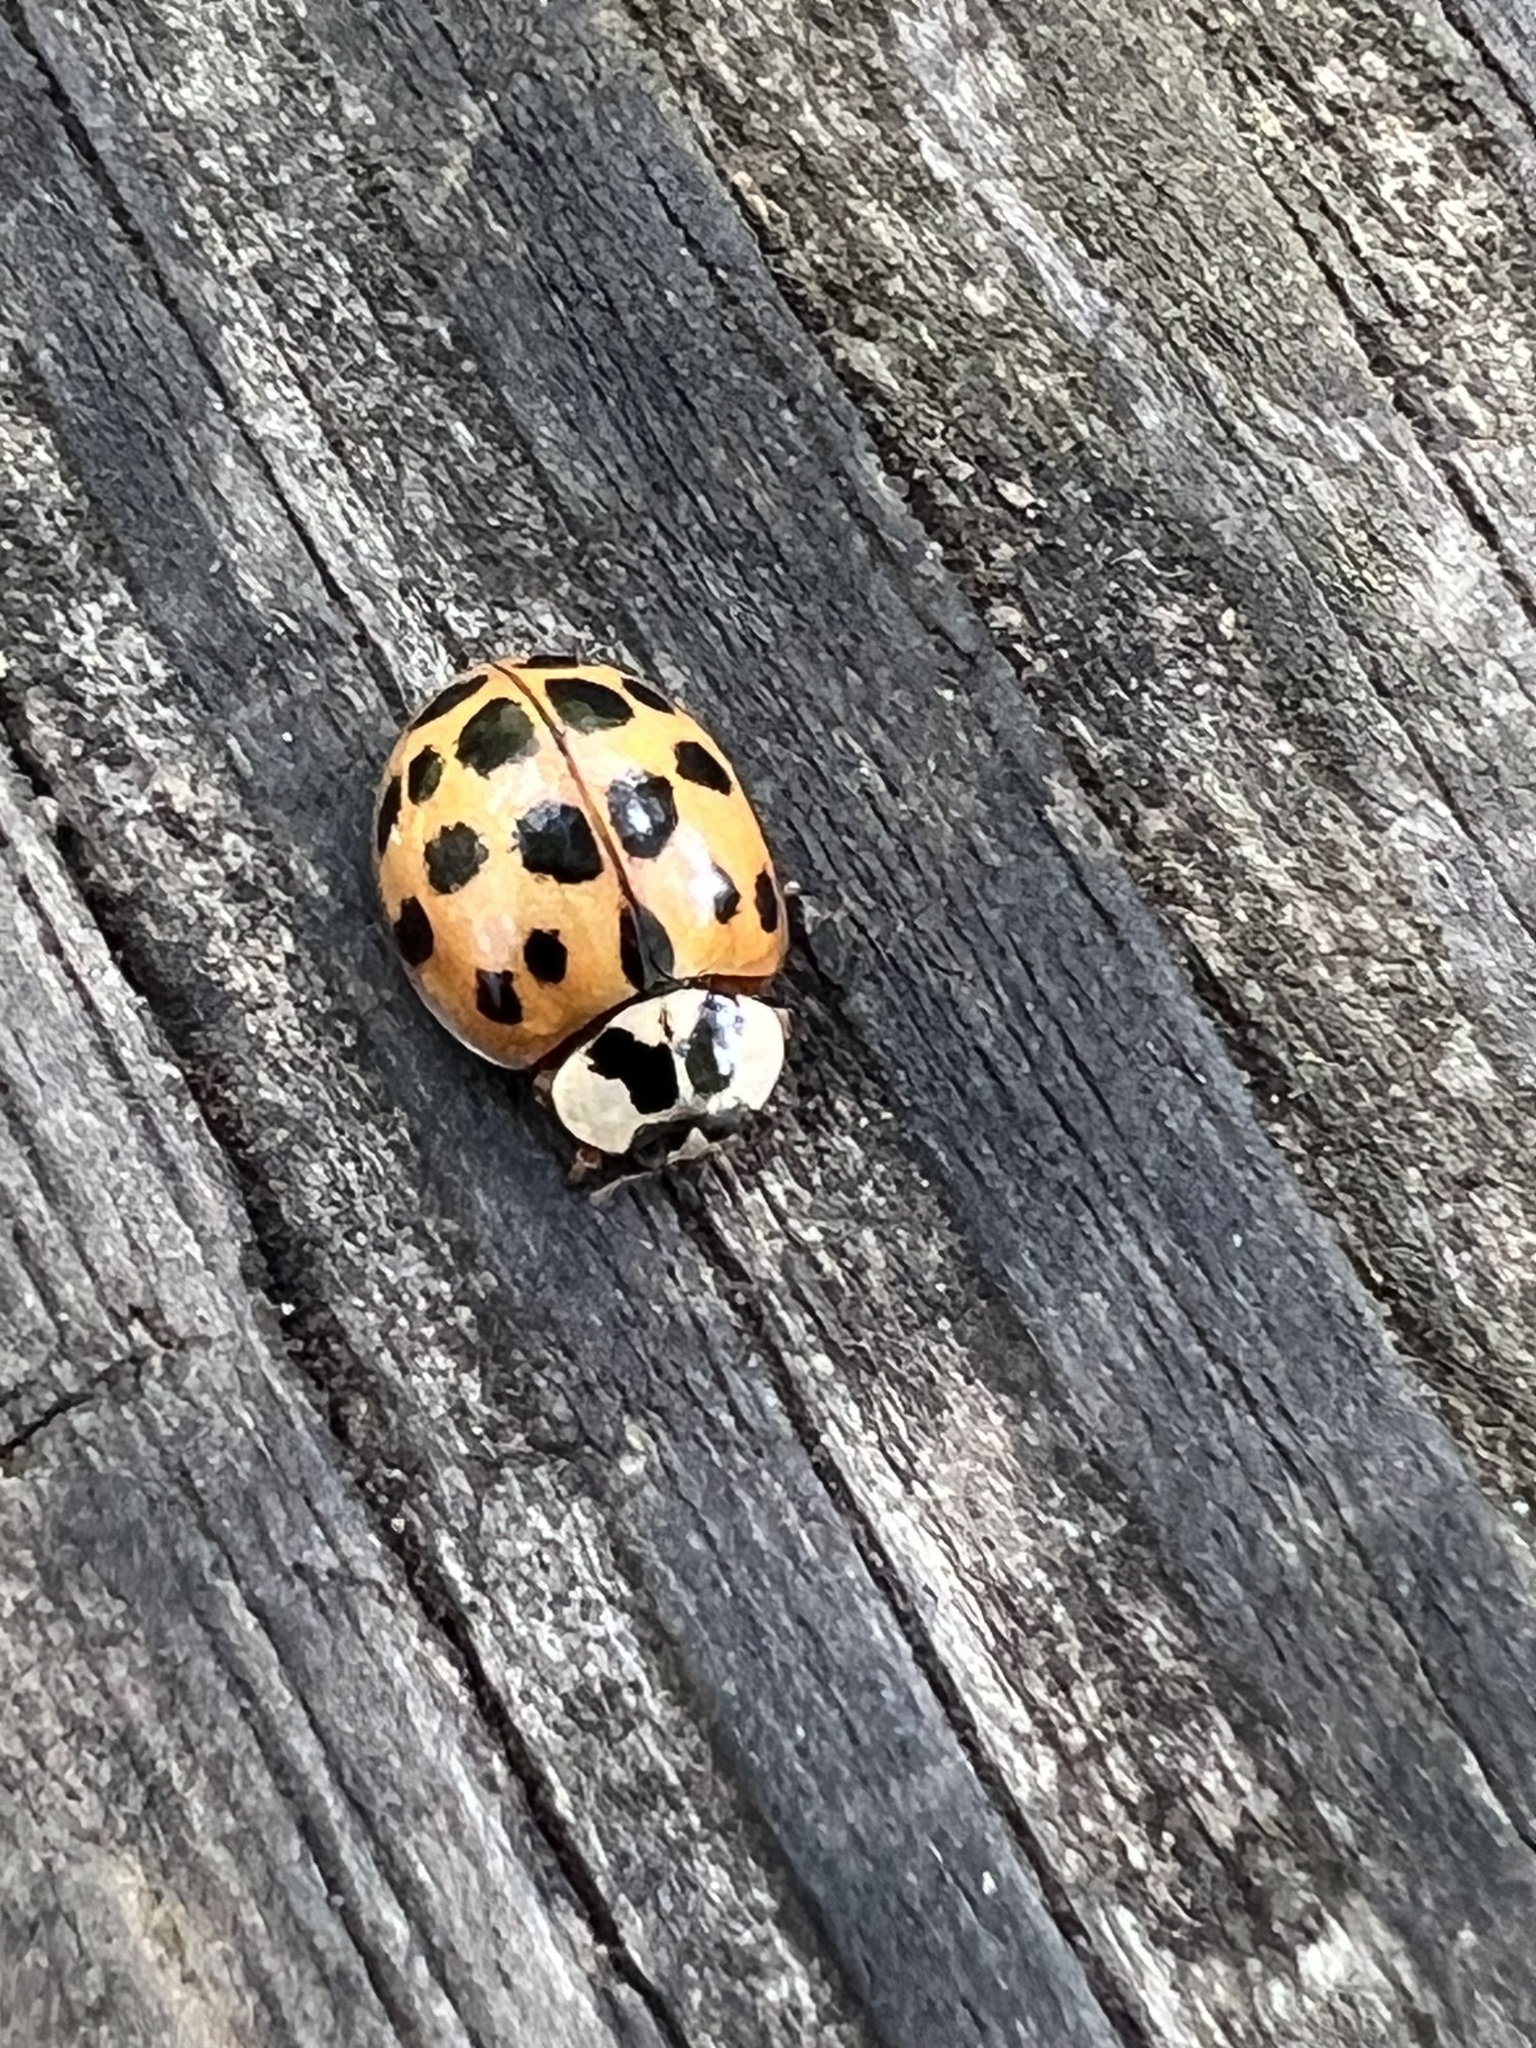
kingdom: Animalia
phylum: Arthropoda
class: Insecta
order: Coleoptera
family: Coccinellidae
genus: Harmonia
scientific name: Harmonia axyridis
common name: Harlequin ladybird
